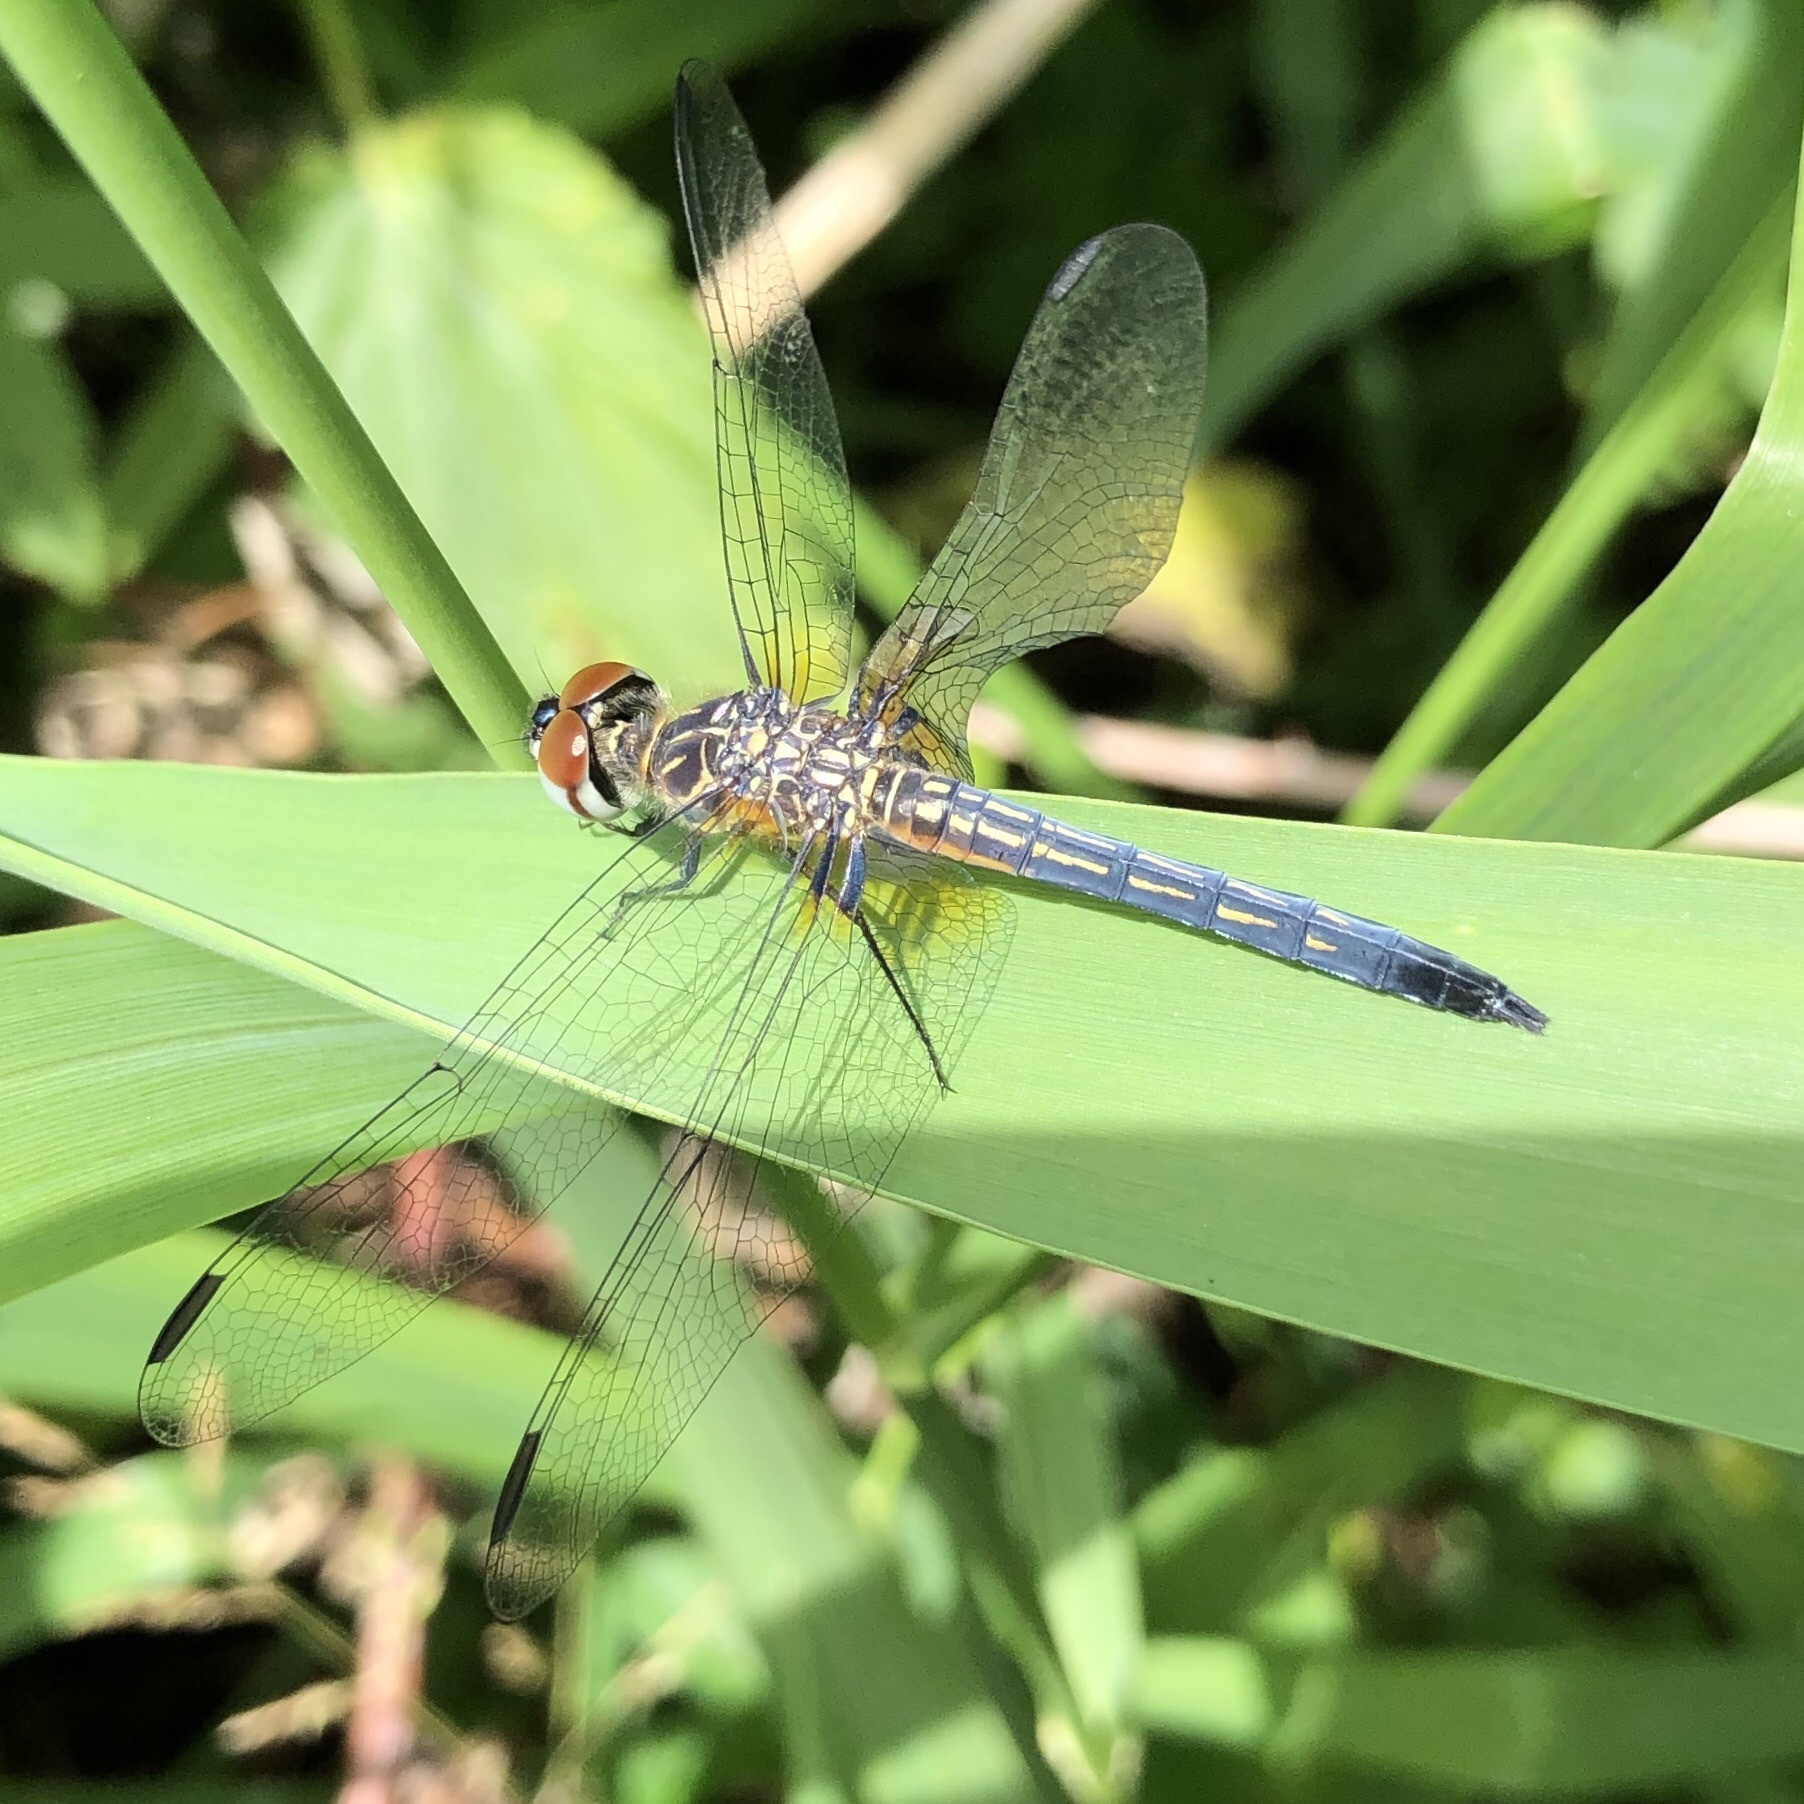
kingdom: Animalia
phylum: Arthropoda
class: Insecta
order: Odonata
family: Libellulidae
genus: Pachydiplax
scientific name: Pachydiplax longipennis
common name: Blue dasher
